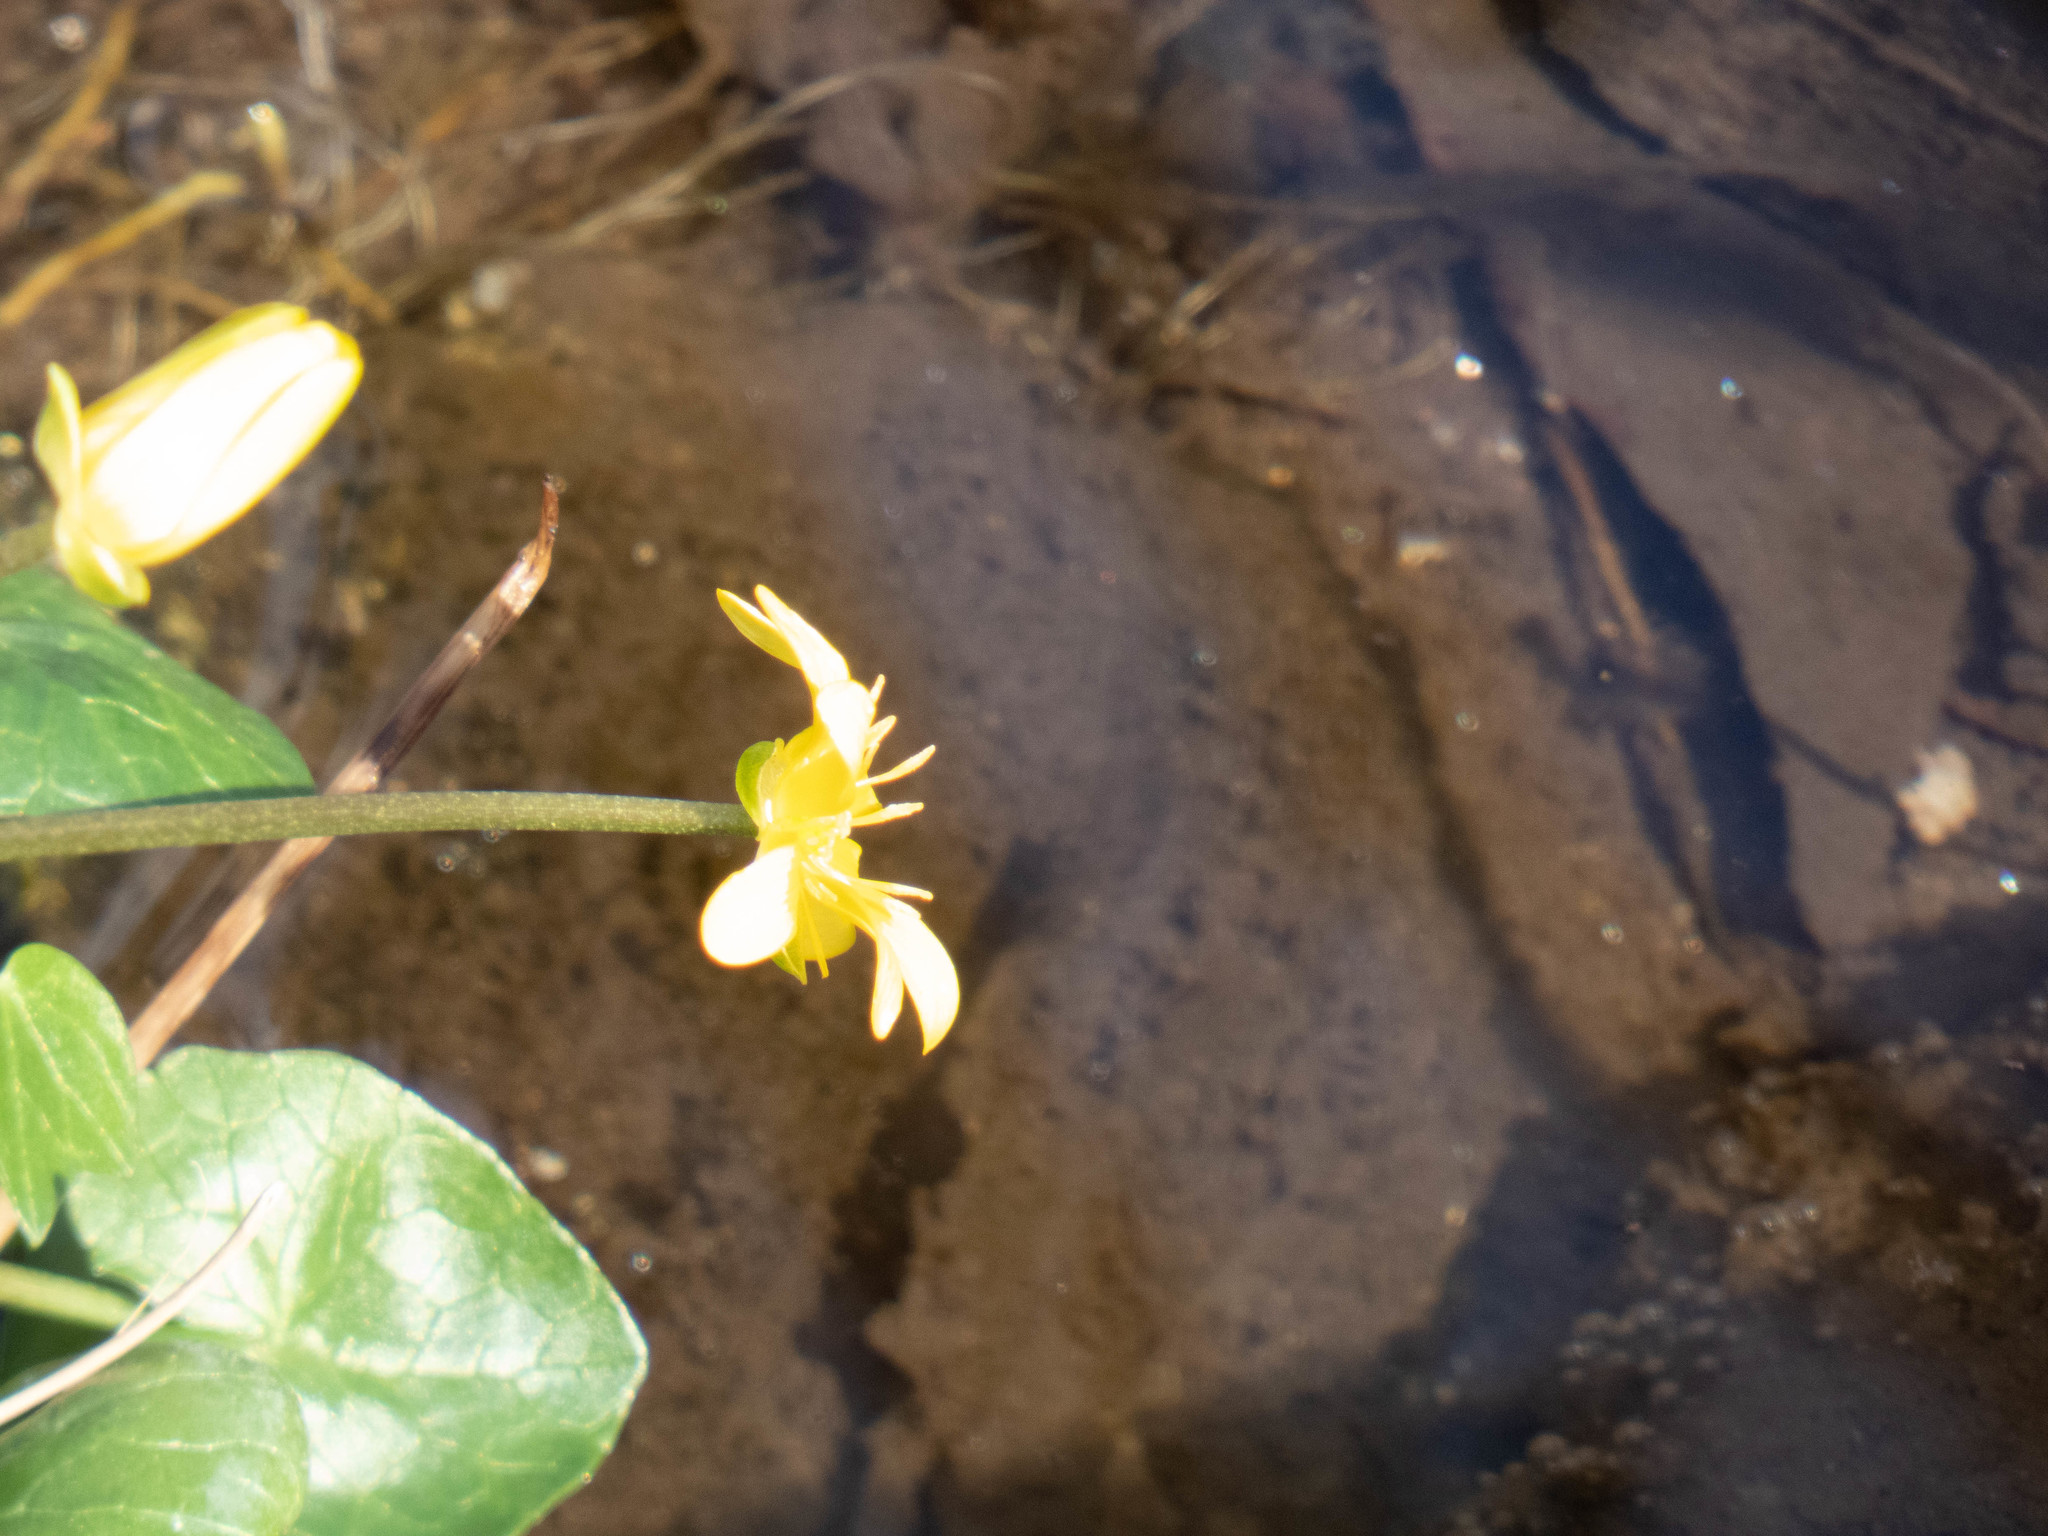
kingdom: Plantae
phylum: Tracheophyta
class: Magnoliopsida
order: Ranunculales
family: Ranunculaceae
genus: Ficaria
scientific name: Ficaria verna
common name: Lesser celandine
